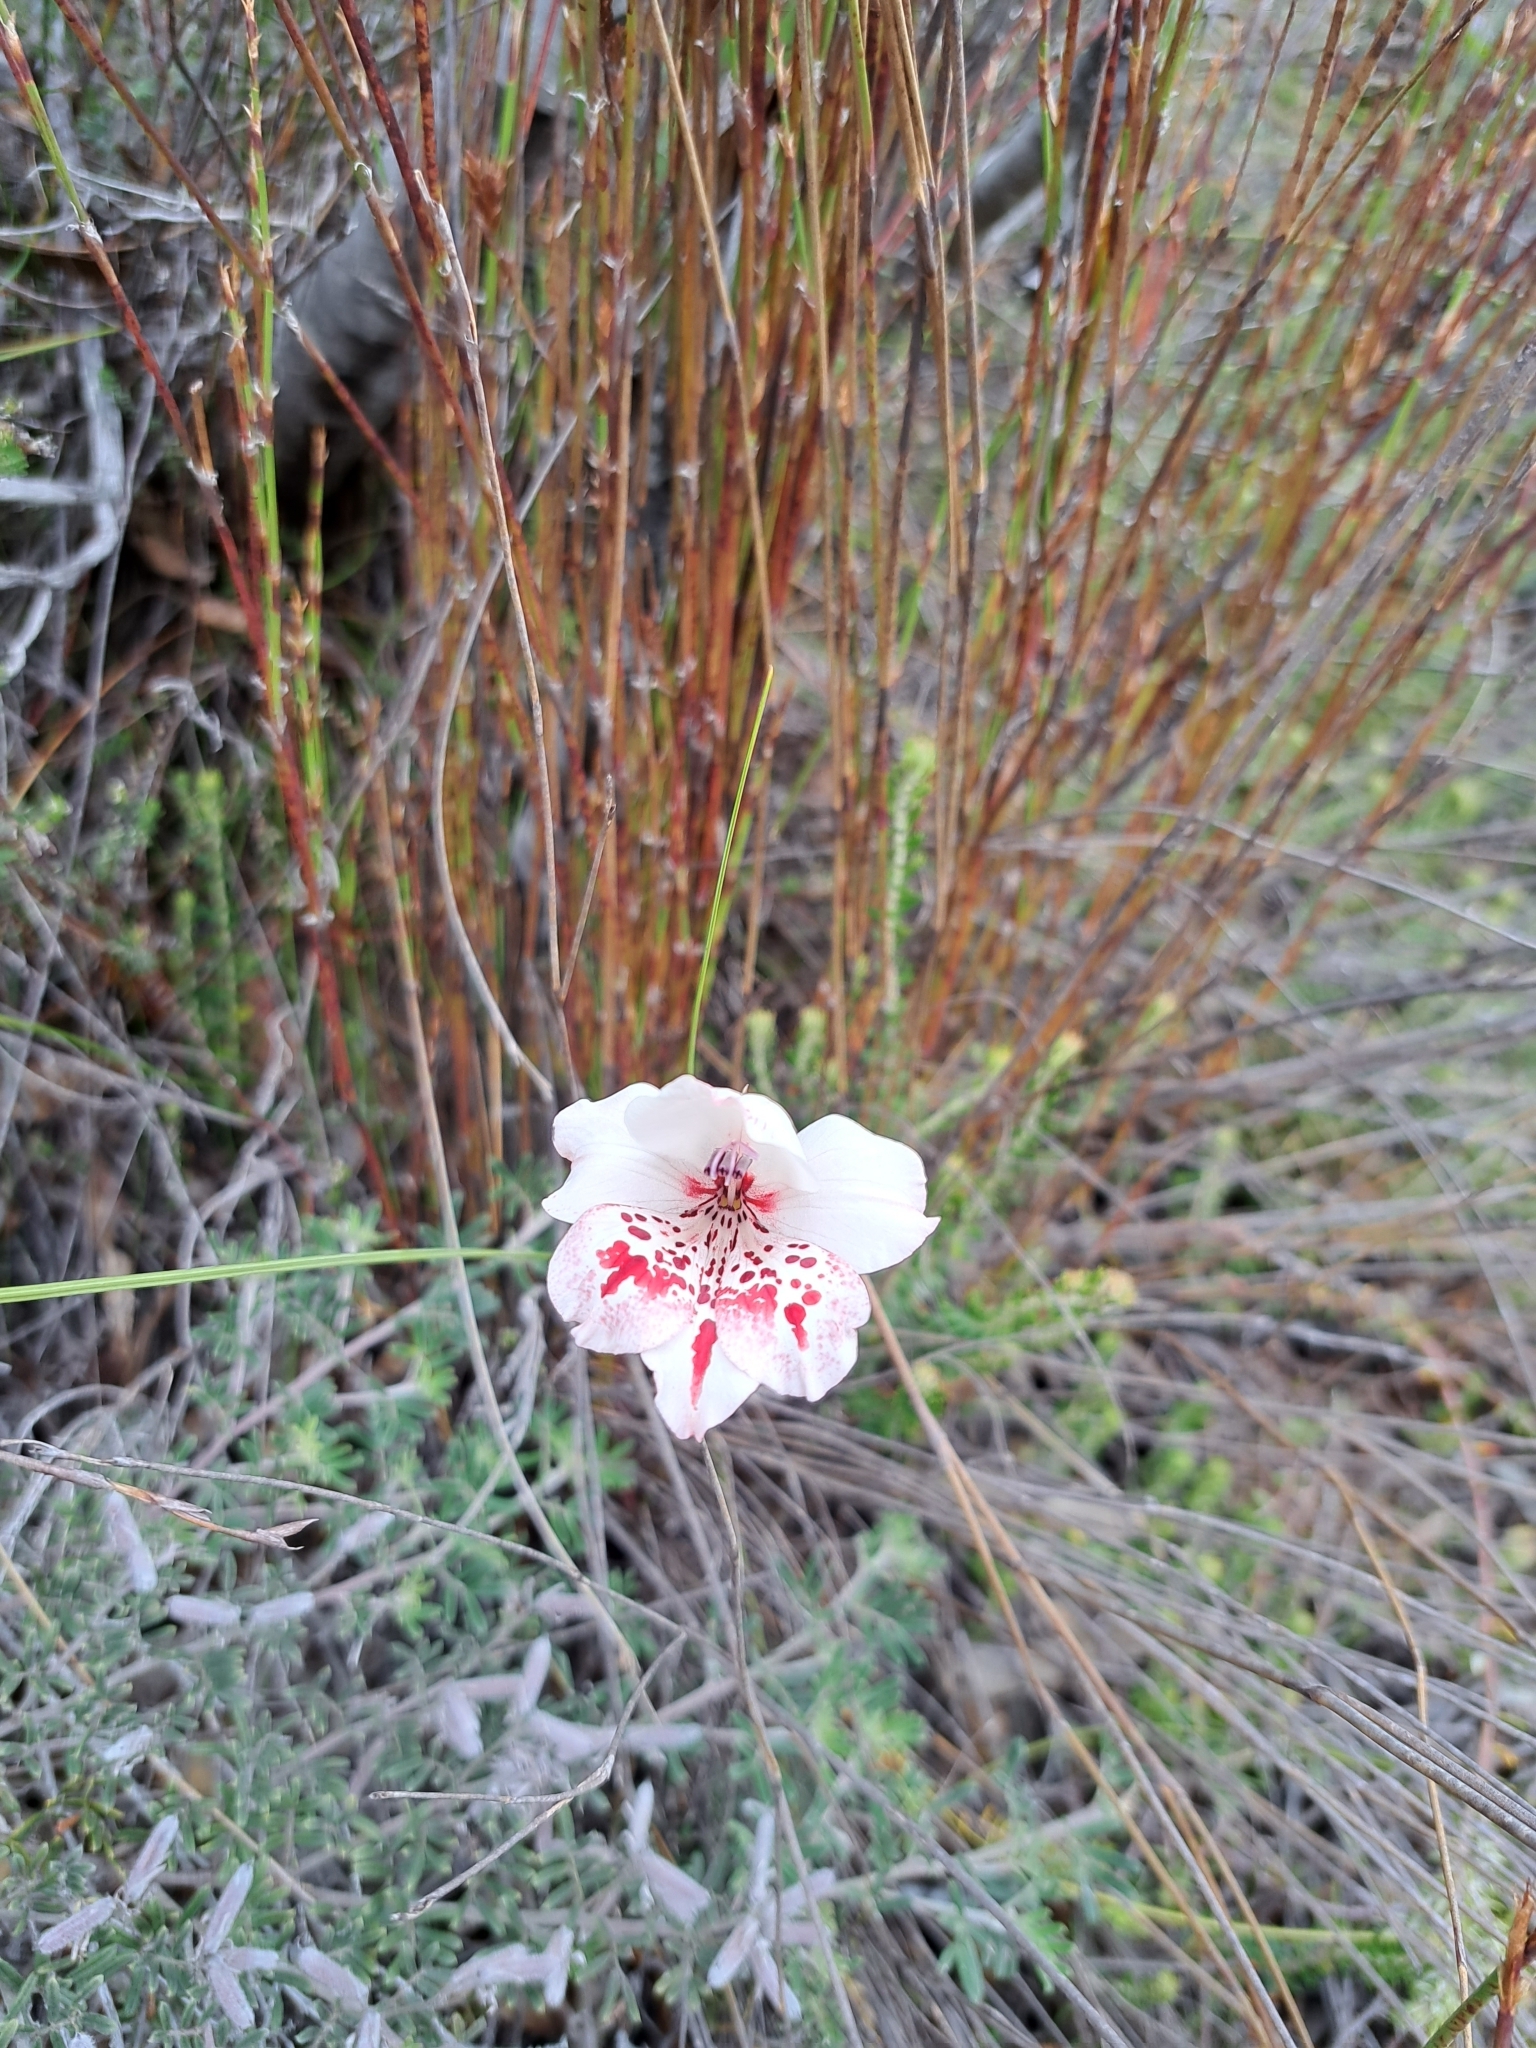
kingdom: Plantae
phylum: Tracheophyta
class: Liliopsida
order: Asparagales
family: Iridaceae
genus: Gladiolus
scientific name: Gladiolus variegatus
